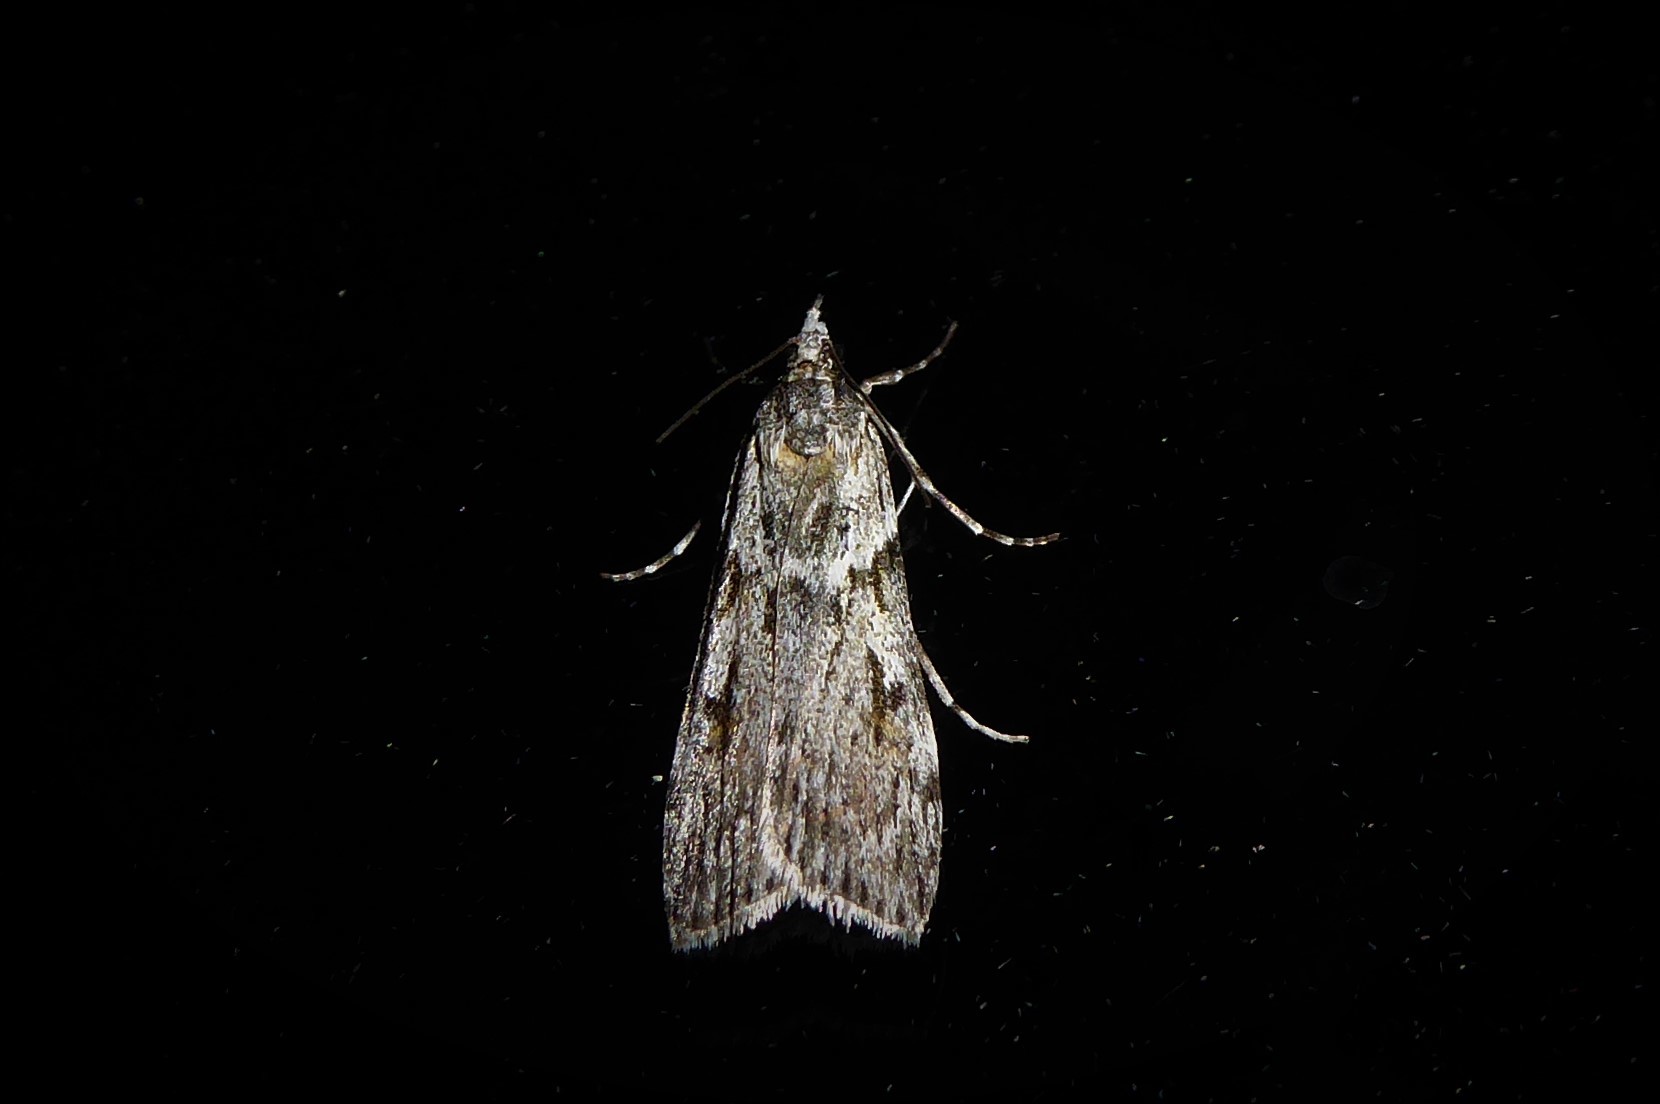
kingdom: Animalia
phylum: Arthropoda
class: Insecta
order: Lepidoptera
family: Crambidae
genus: Scoparia
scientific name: Scoparia halopis
